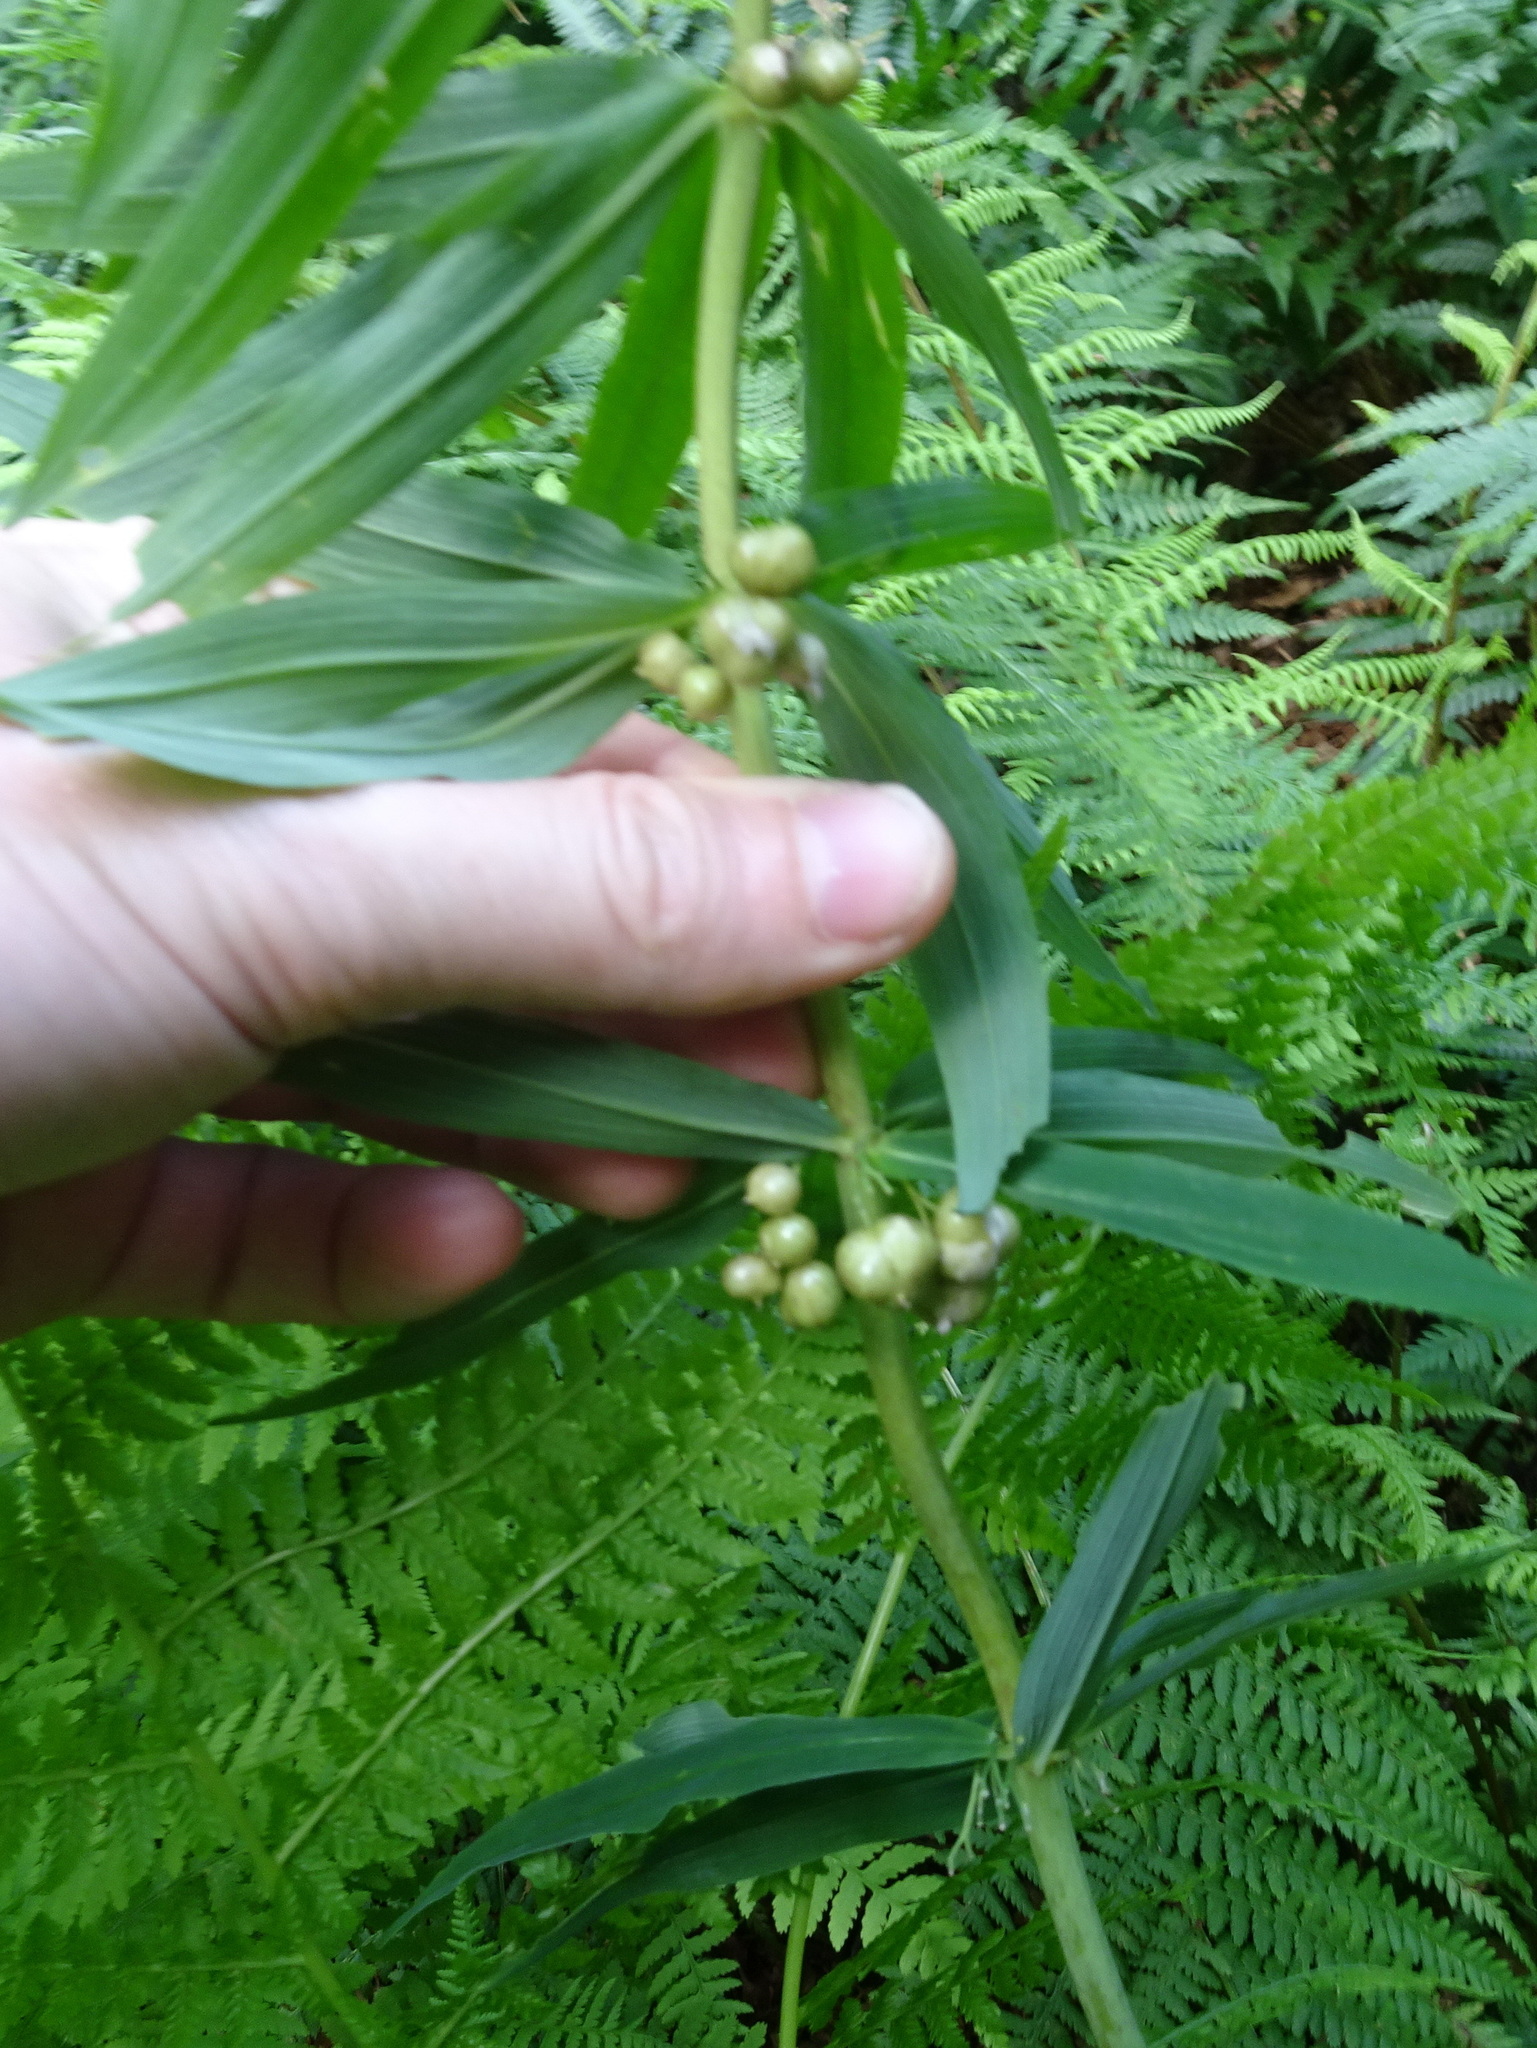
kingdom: Plantae
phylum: Tracheophyta
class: Liliopsida
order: Asparagales
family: Asparagaceae
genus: Polygonatum
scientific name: Polygonatum verticillatum
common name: Whorled solomon's-seal
